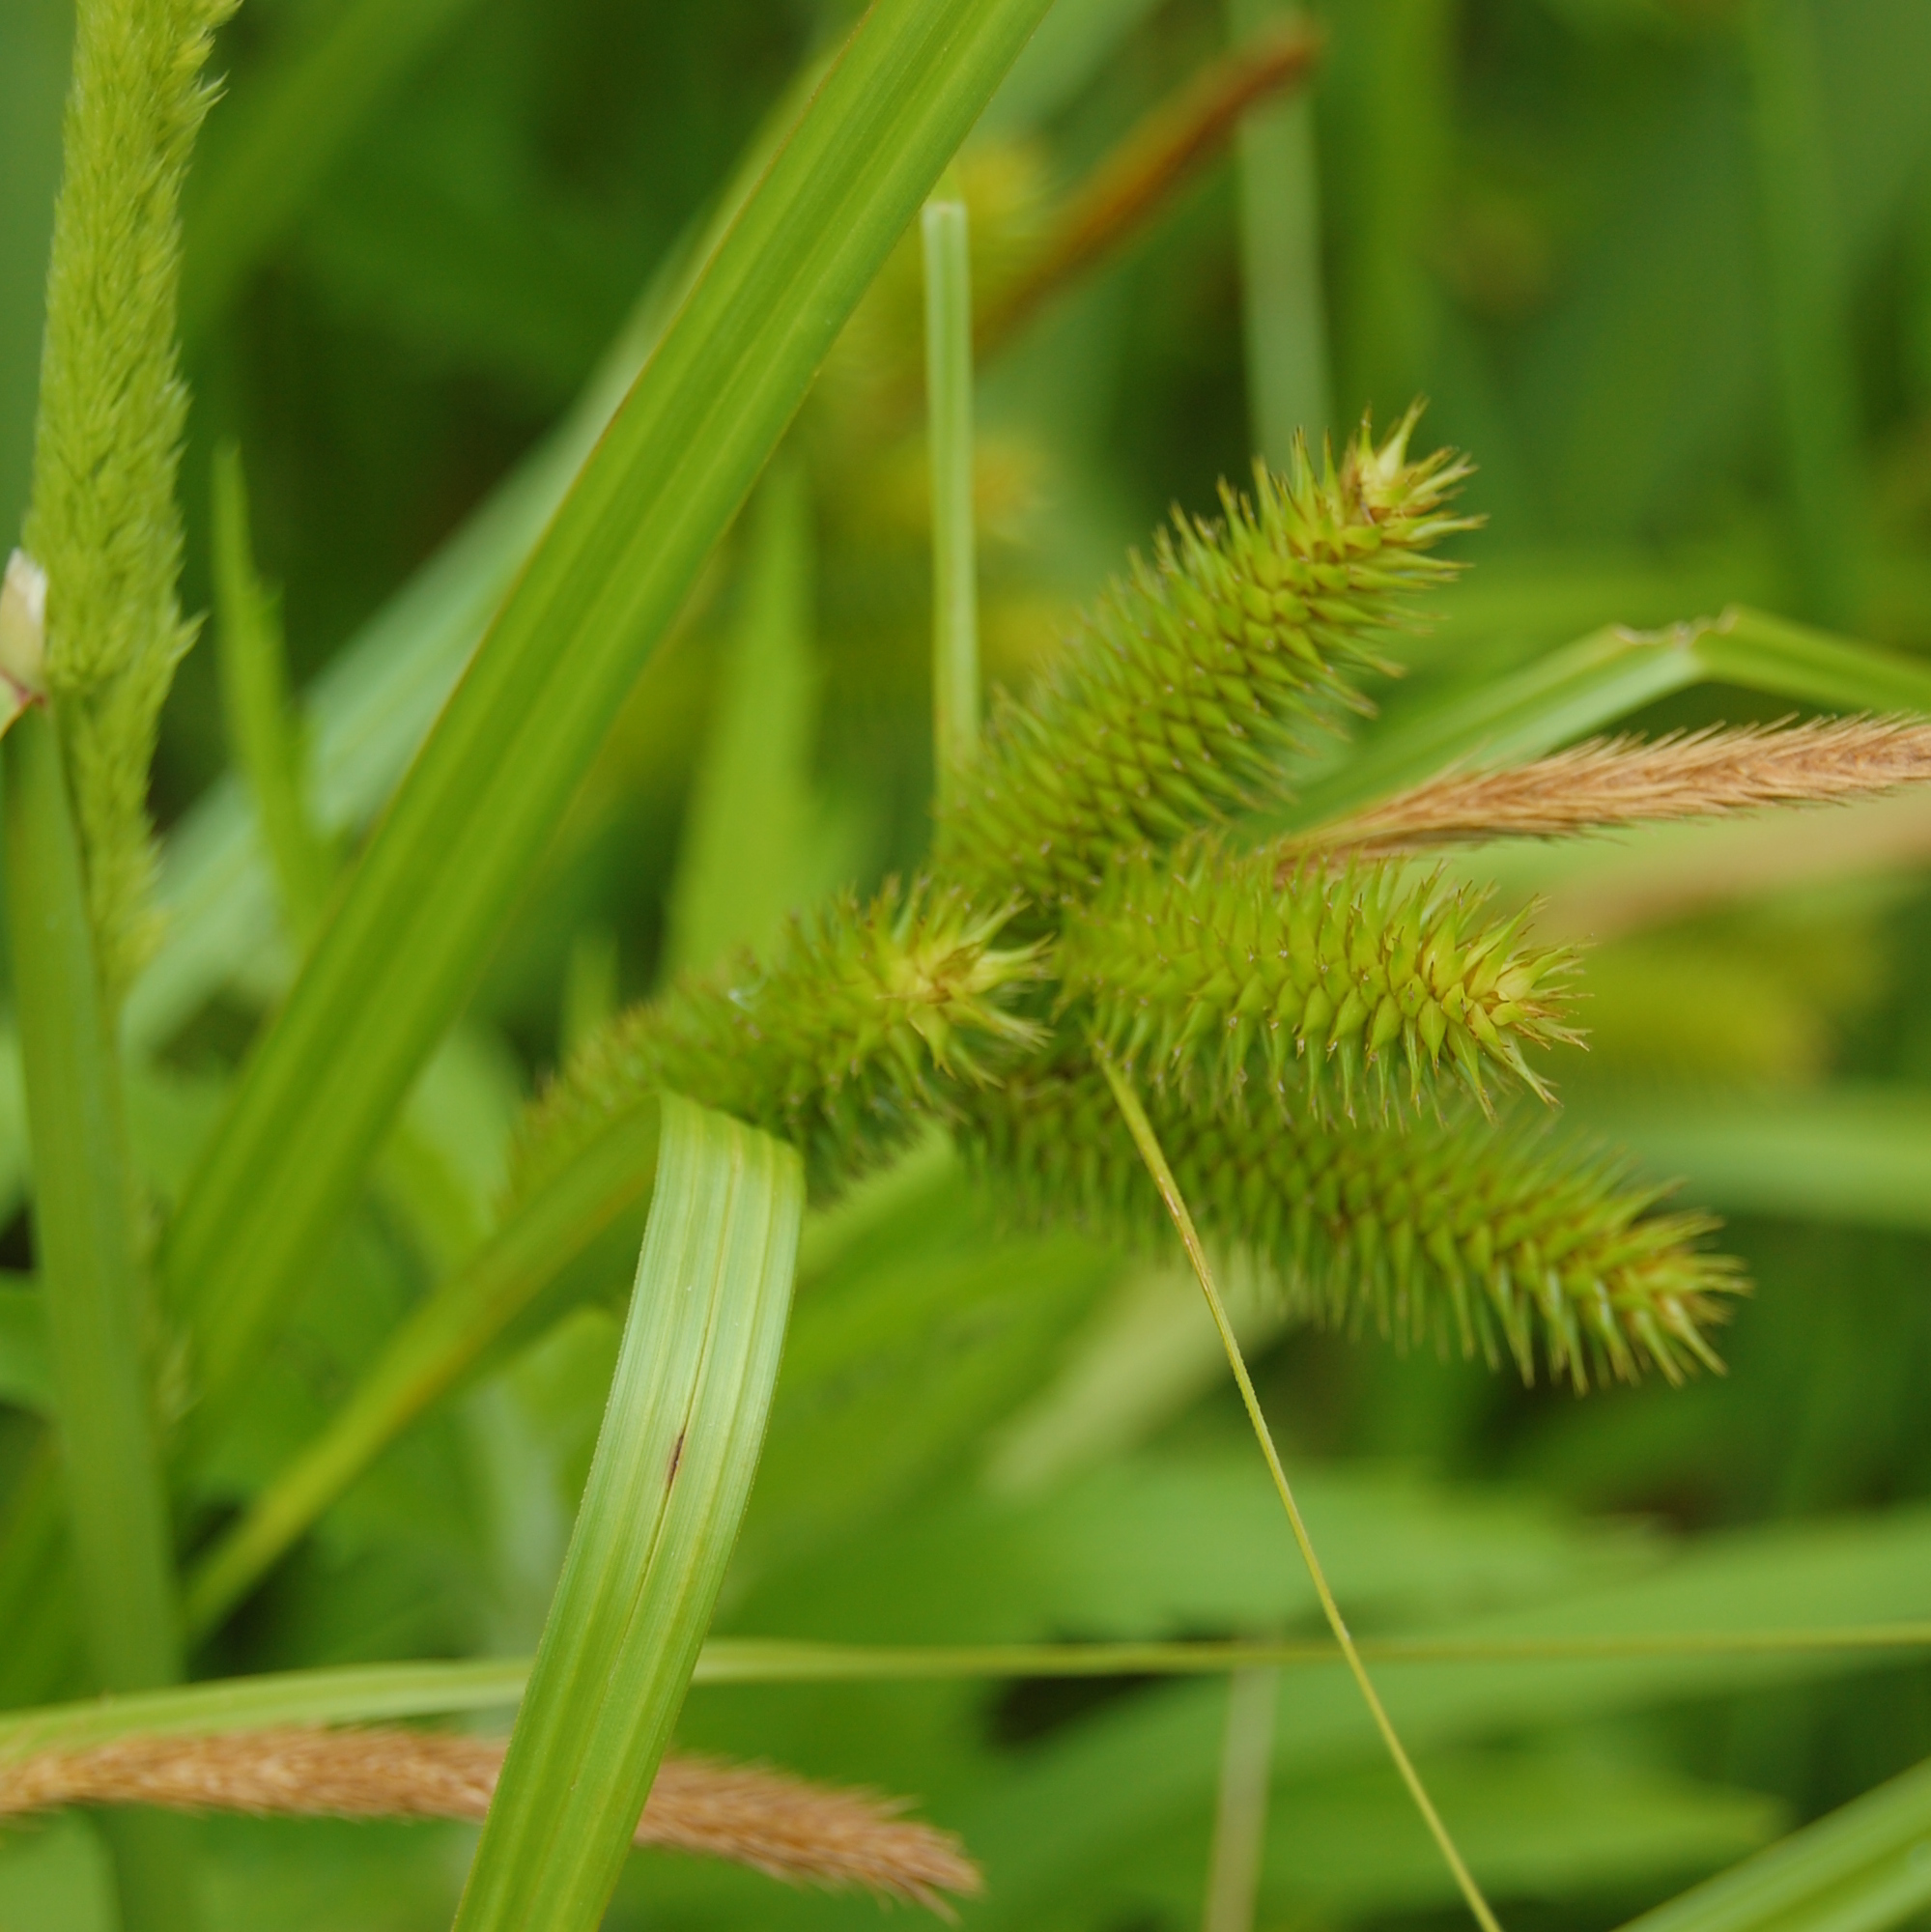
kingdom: Plantae
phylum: Tracheophyta
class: Liliopsida
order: Poales
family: Cyperaceae
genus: Carex
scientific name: Carex polysticha
